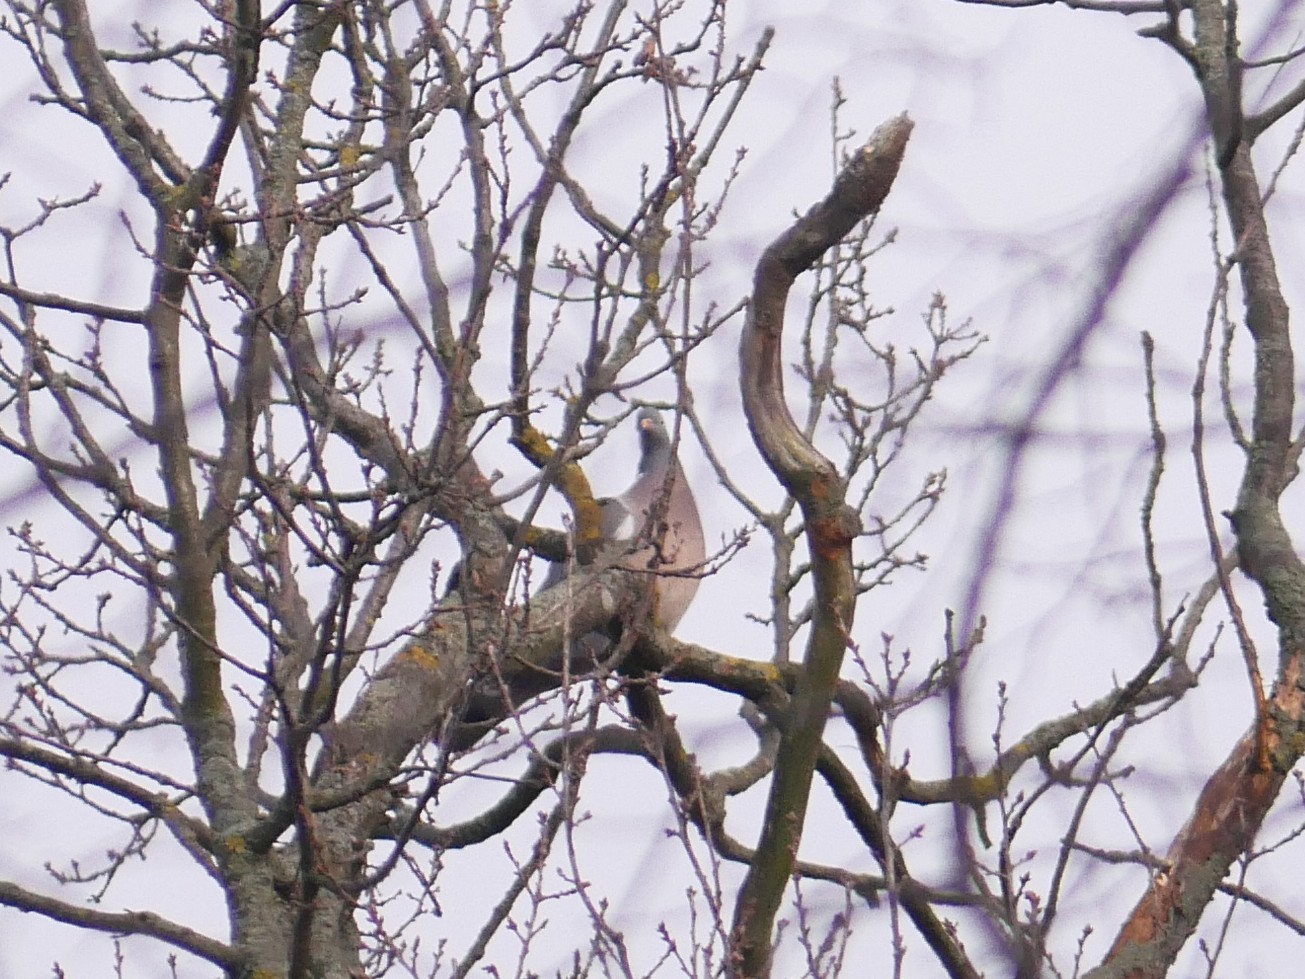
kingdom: Animalia
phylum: Chordata
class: Aves
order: Columbiformes
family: Columbidae
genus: Columba
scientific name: Columba palumbus
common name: Common wood pigeon
